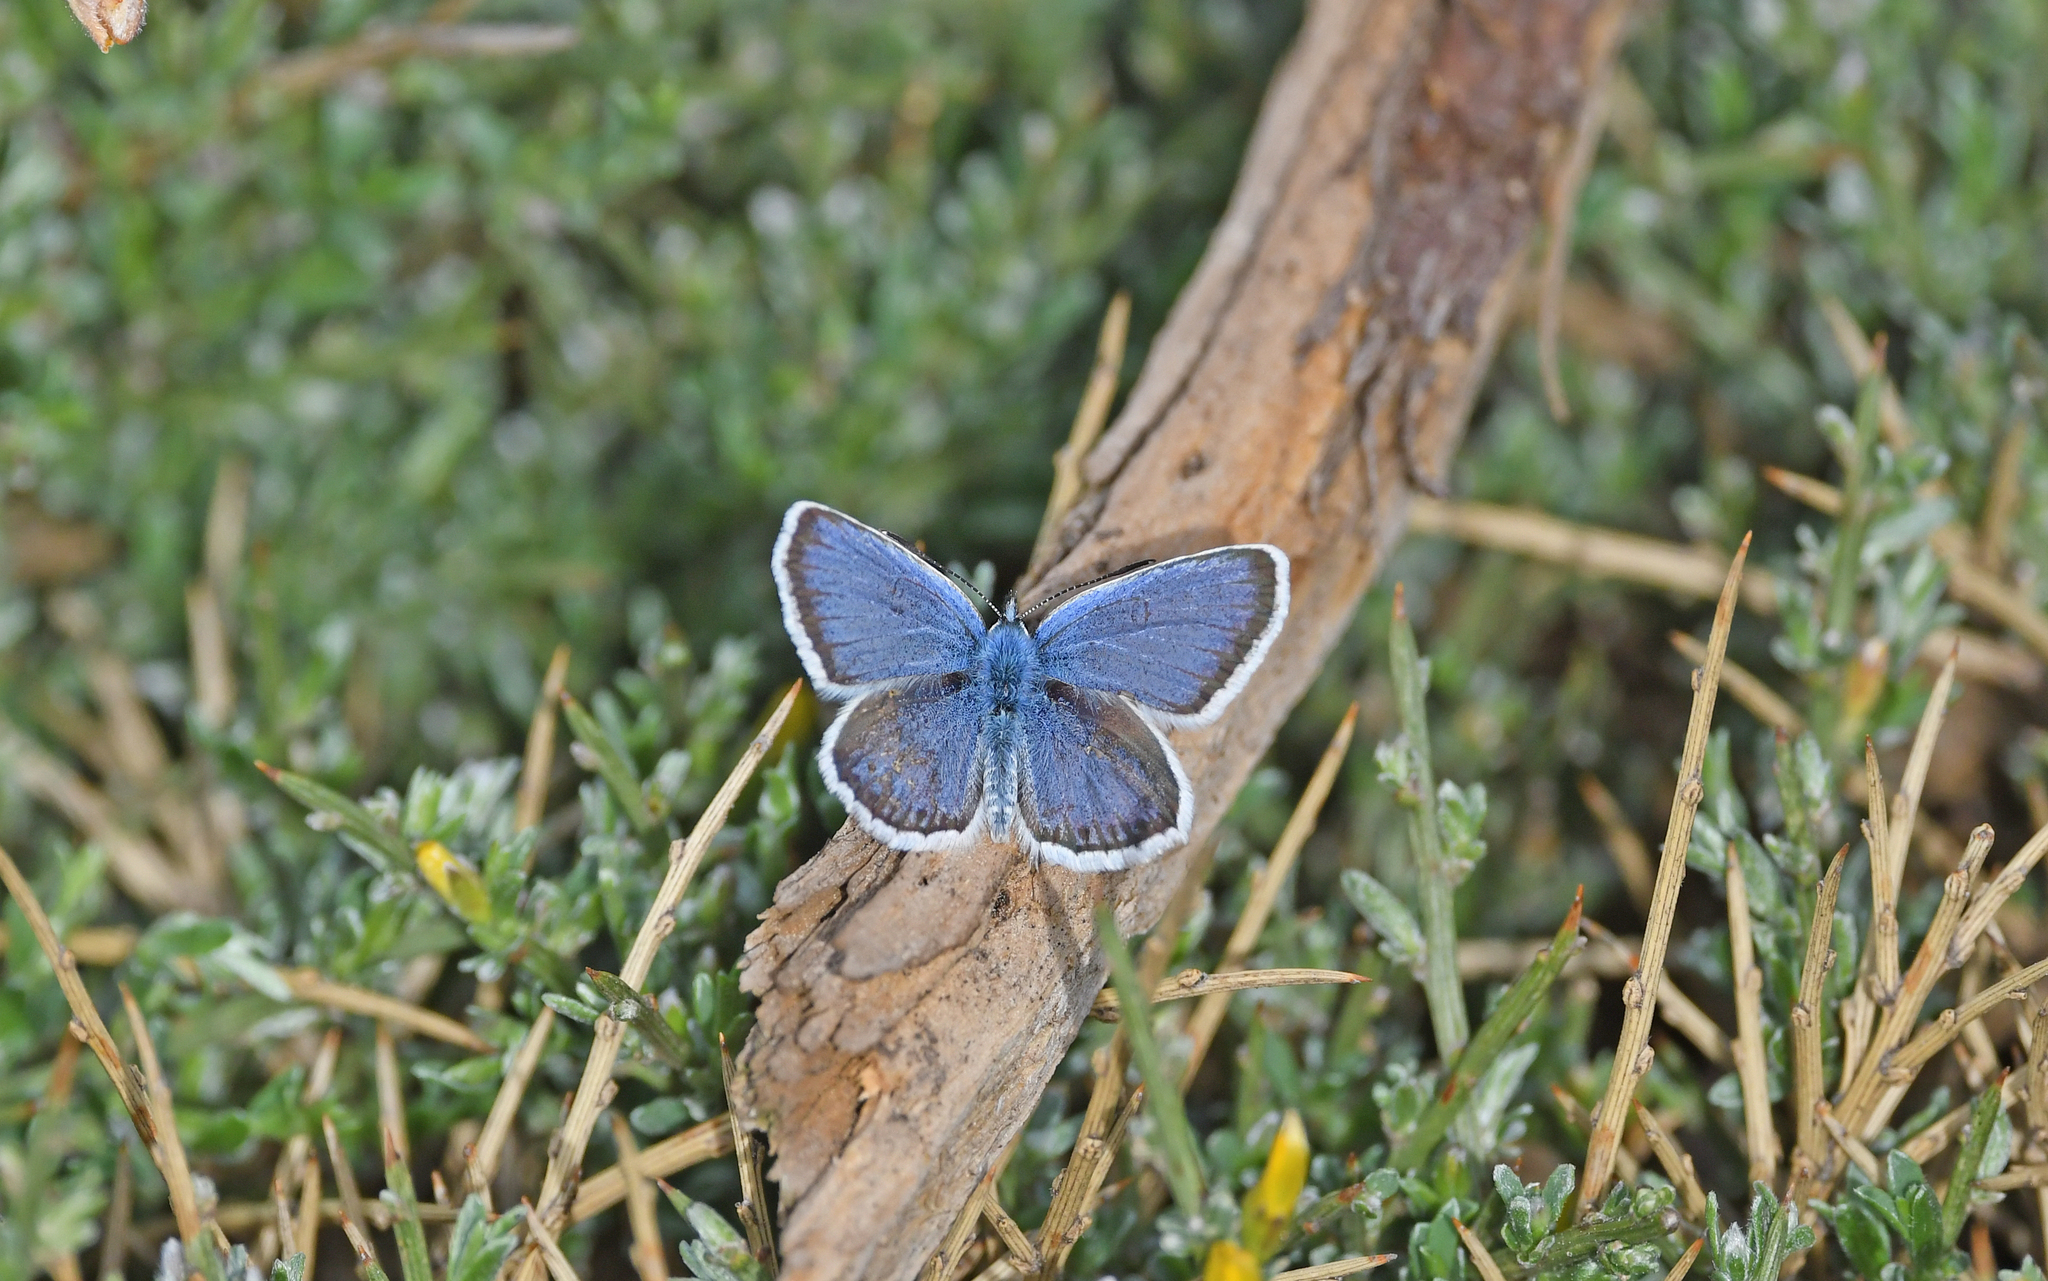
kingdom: Animalia
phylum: Arthropoda
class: Insecta
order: Lepidoptera
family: Lycaenidae
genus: Plebejus
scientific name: Plebejus argus
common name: Silver-studded blue
